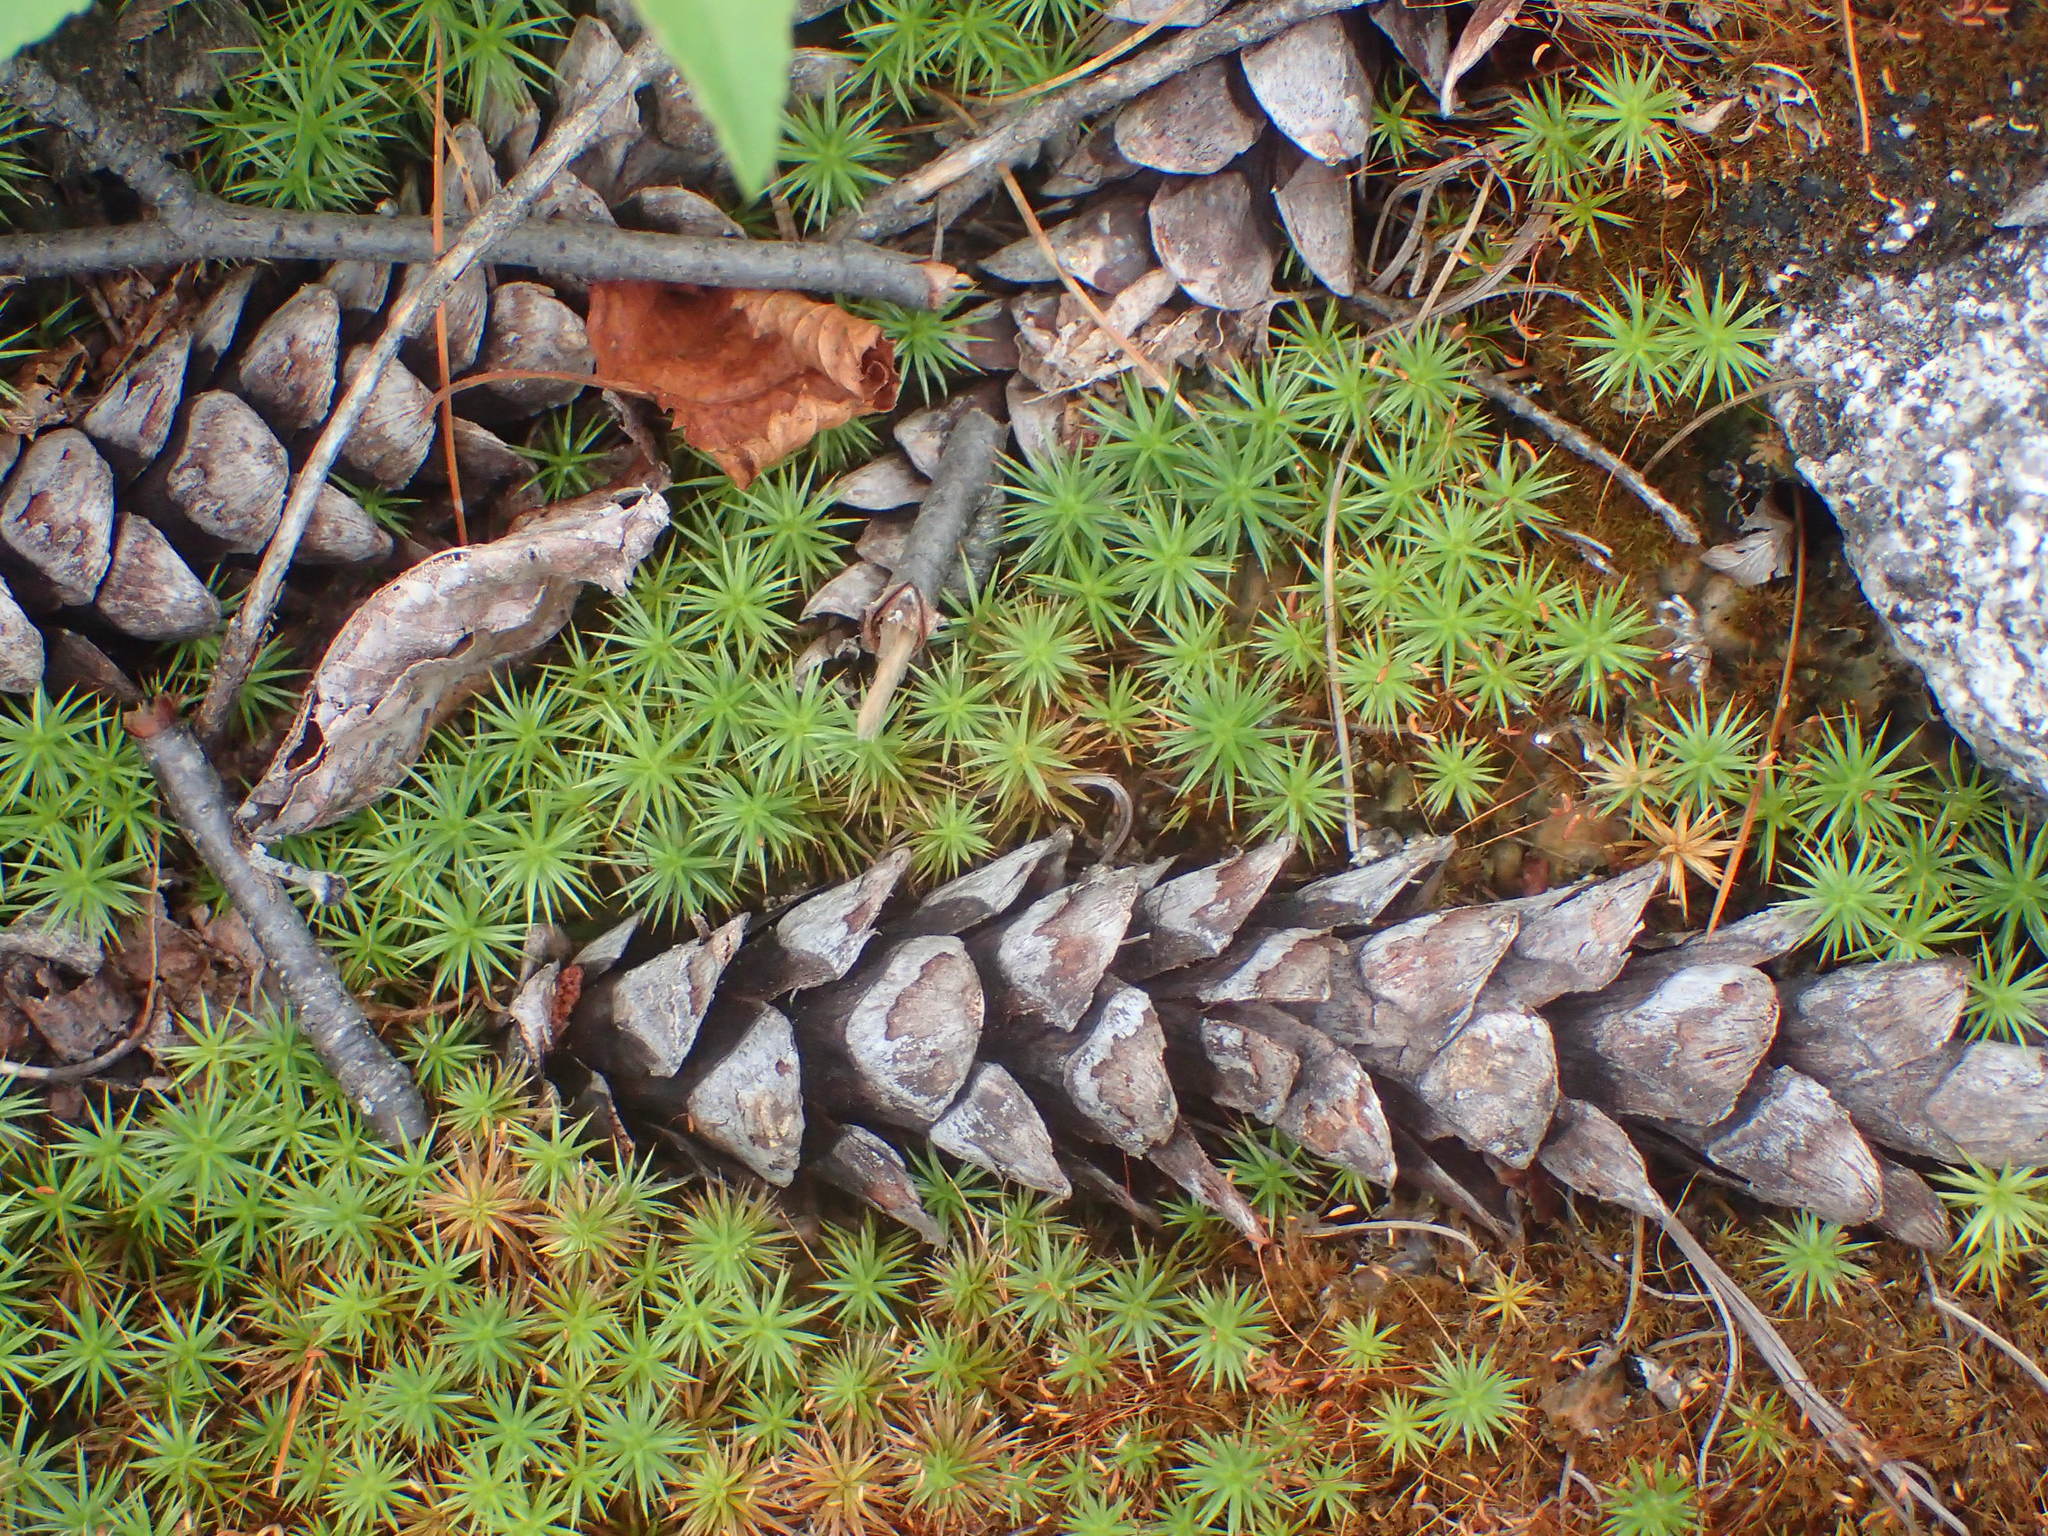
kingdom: Plantae
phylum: Tracheophyta
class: Pinopsida
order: Pinales
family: Pinaceae
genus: Pinus
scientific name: Pinus strobus
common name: Weymouth pine
